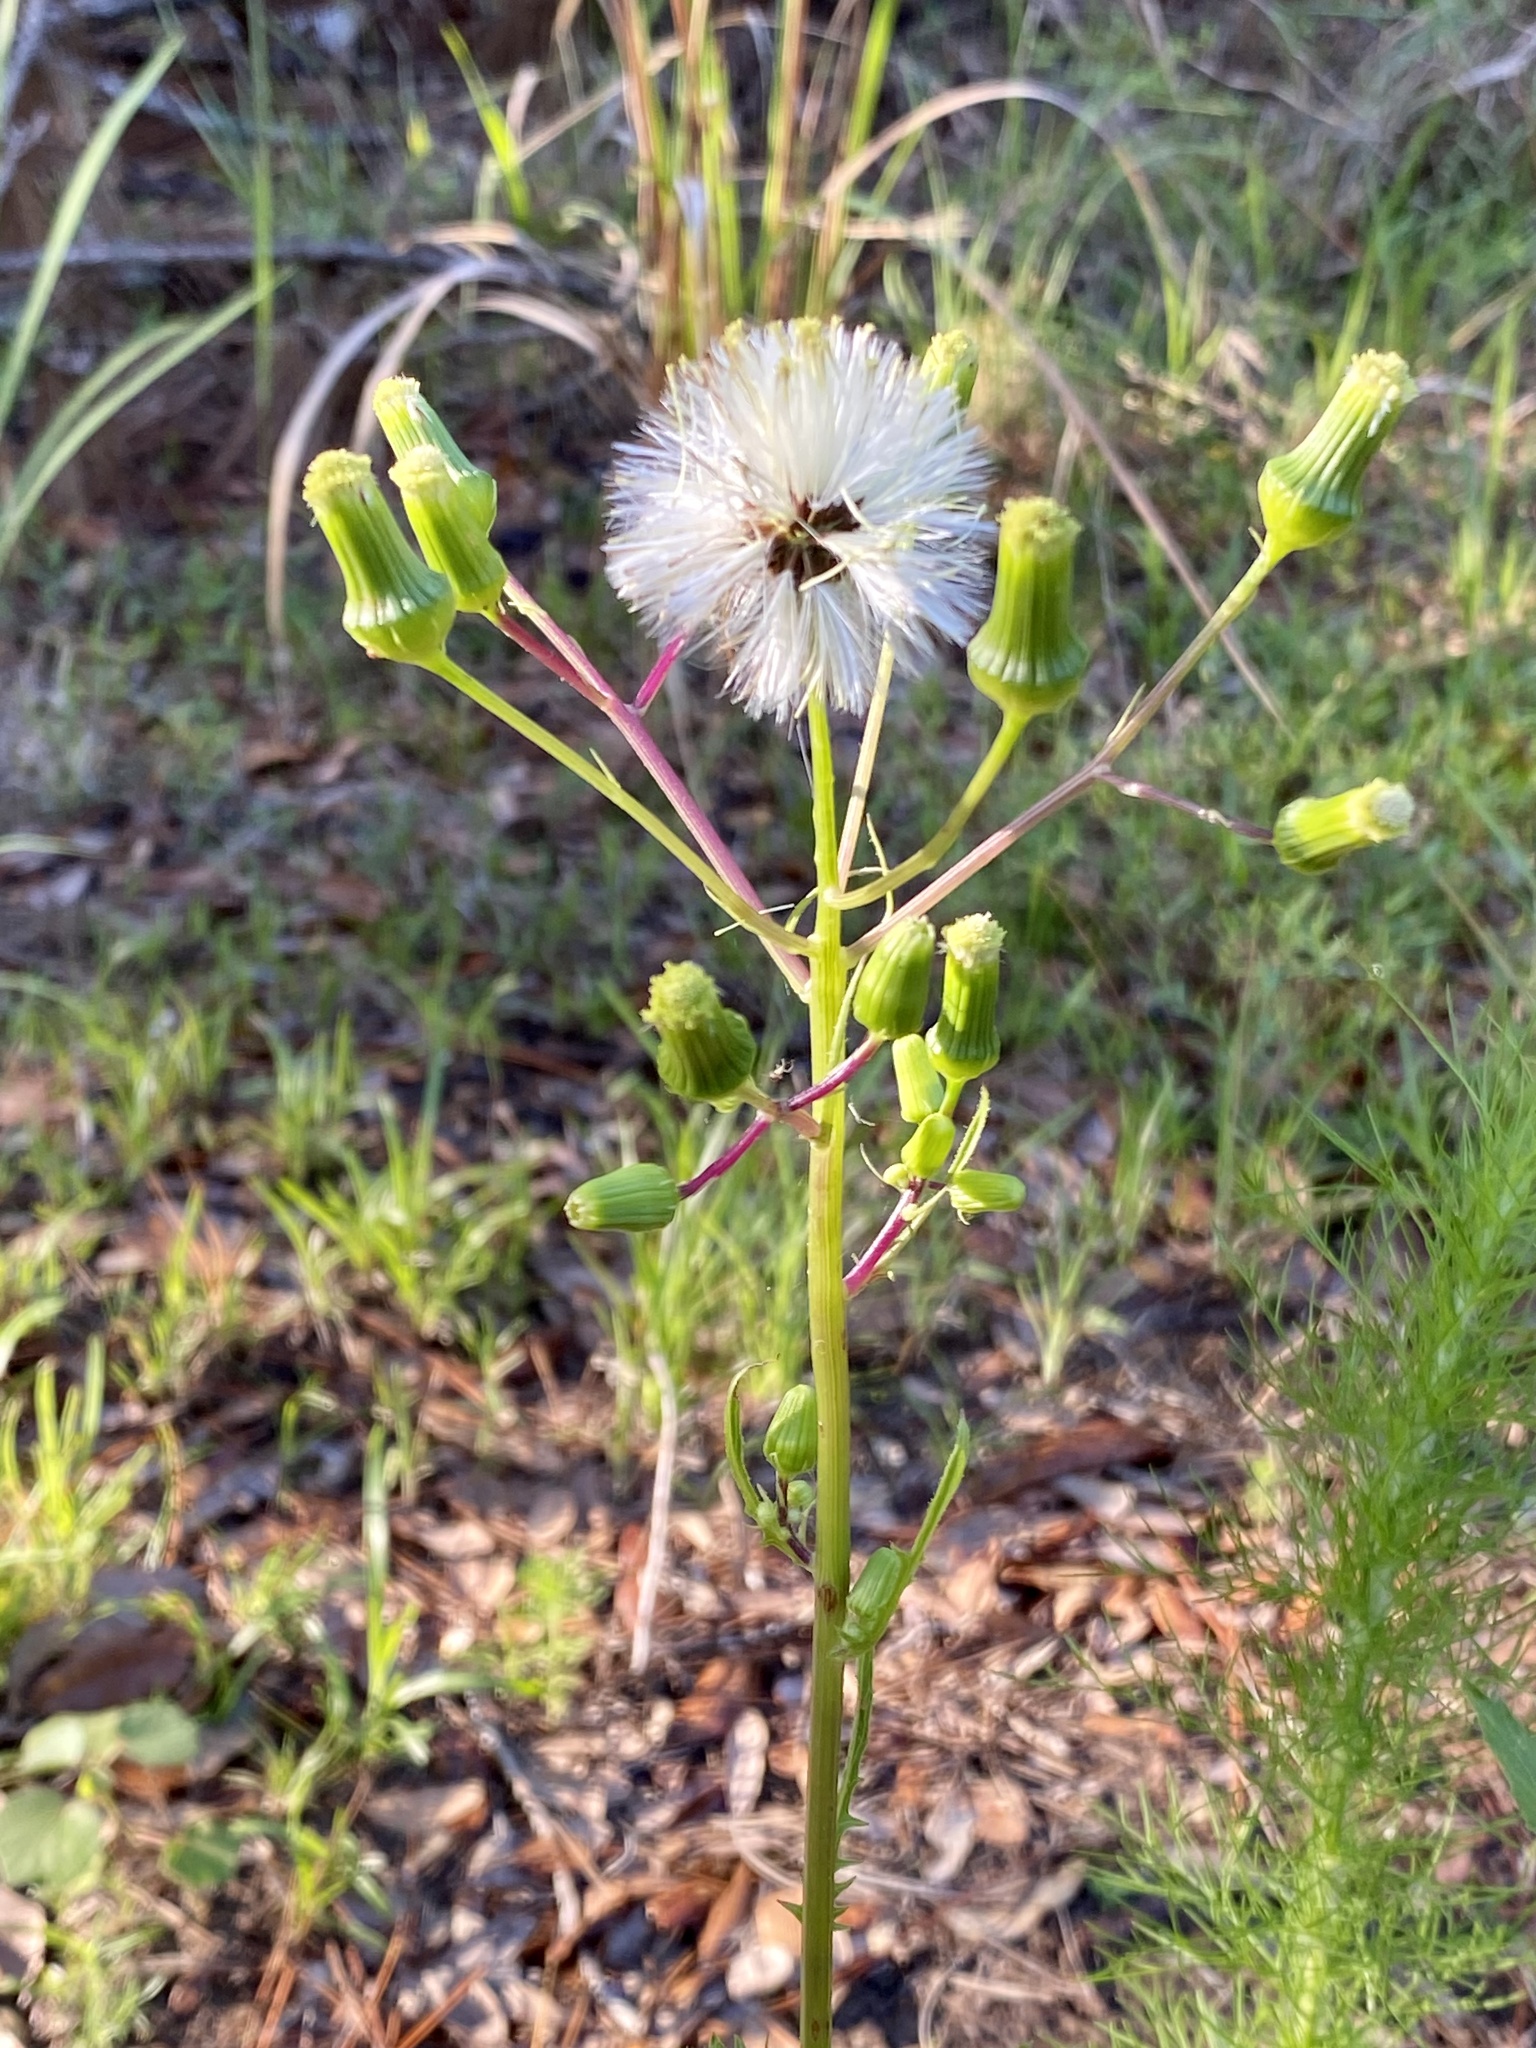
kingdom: Plantae
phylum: Tracheophyta
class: Magnoliopsida
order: Asterales
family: Asteraceae
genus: Erechtites
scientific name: Erechtites hieraciifolius
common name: American burnweed
